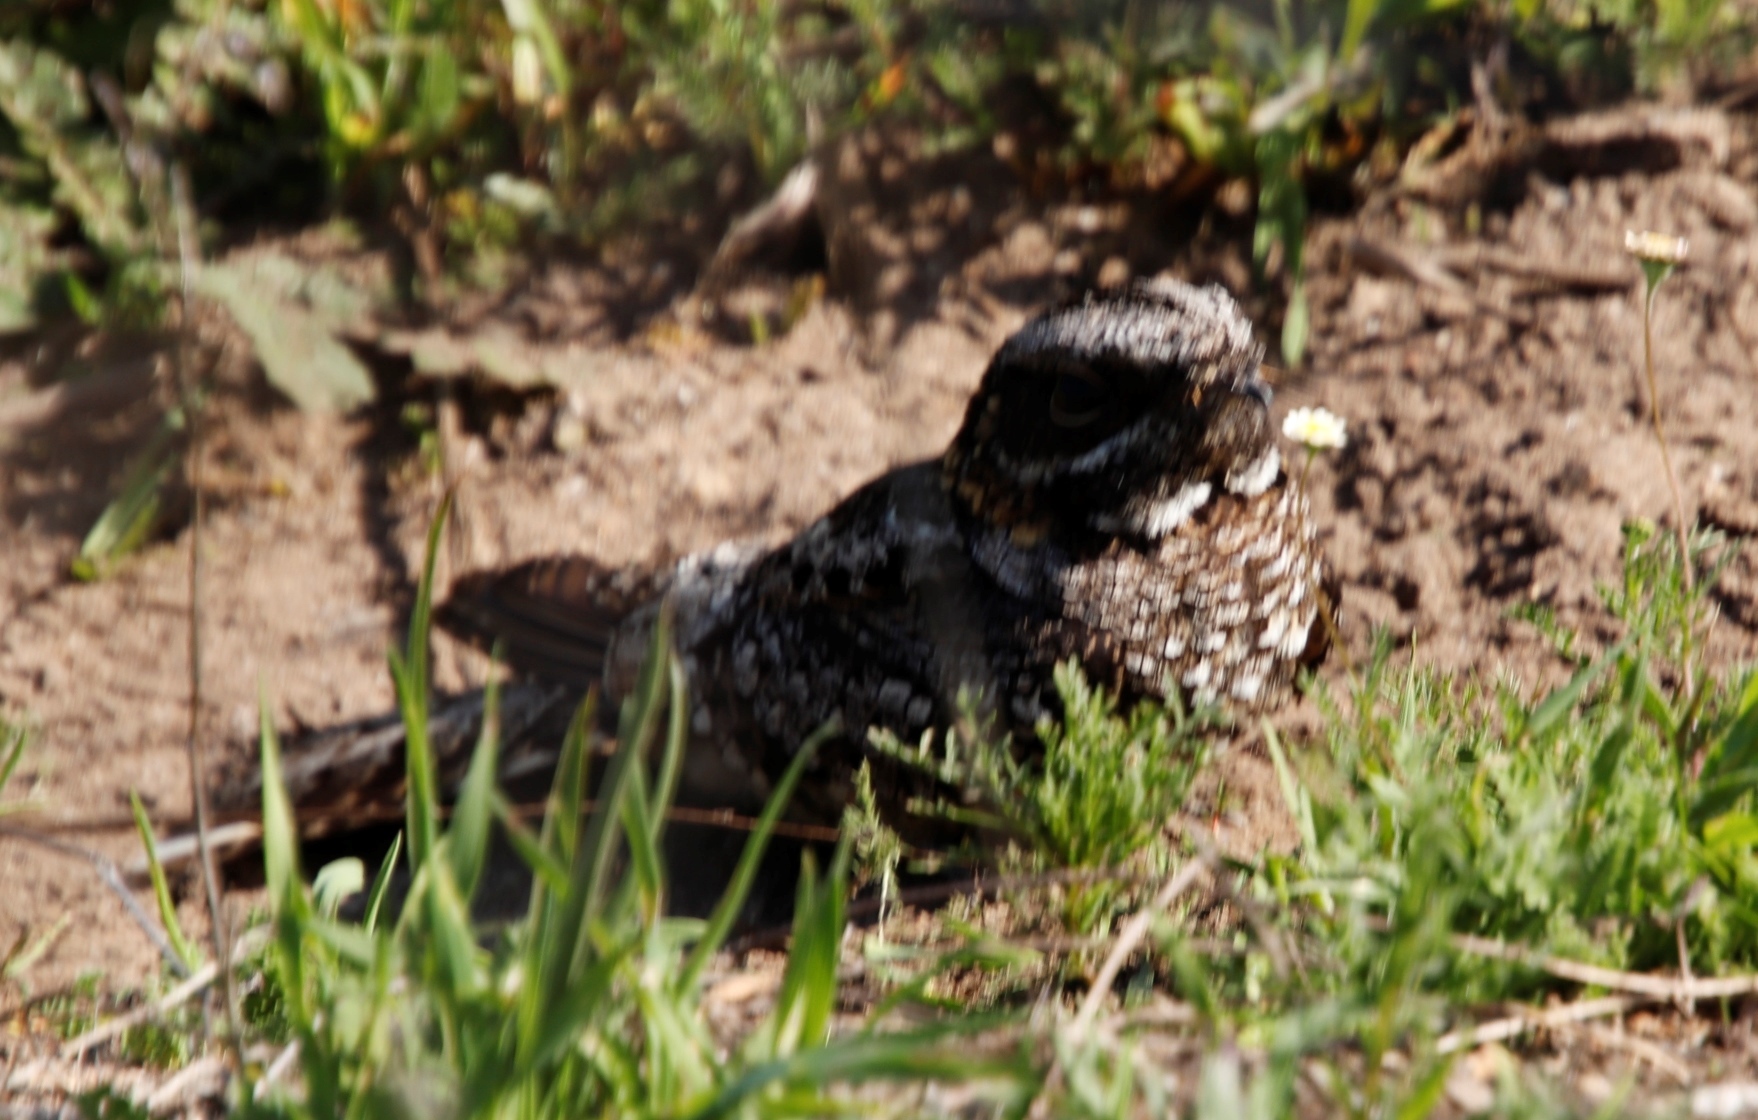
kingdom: Animalia
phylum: Chordata
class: Aves
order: Caprimulgiformes
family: Caprimulgidae
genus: Caprimulgus
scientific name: Caprimulgus pectoralis
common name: Fiery-necked nightjar
